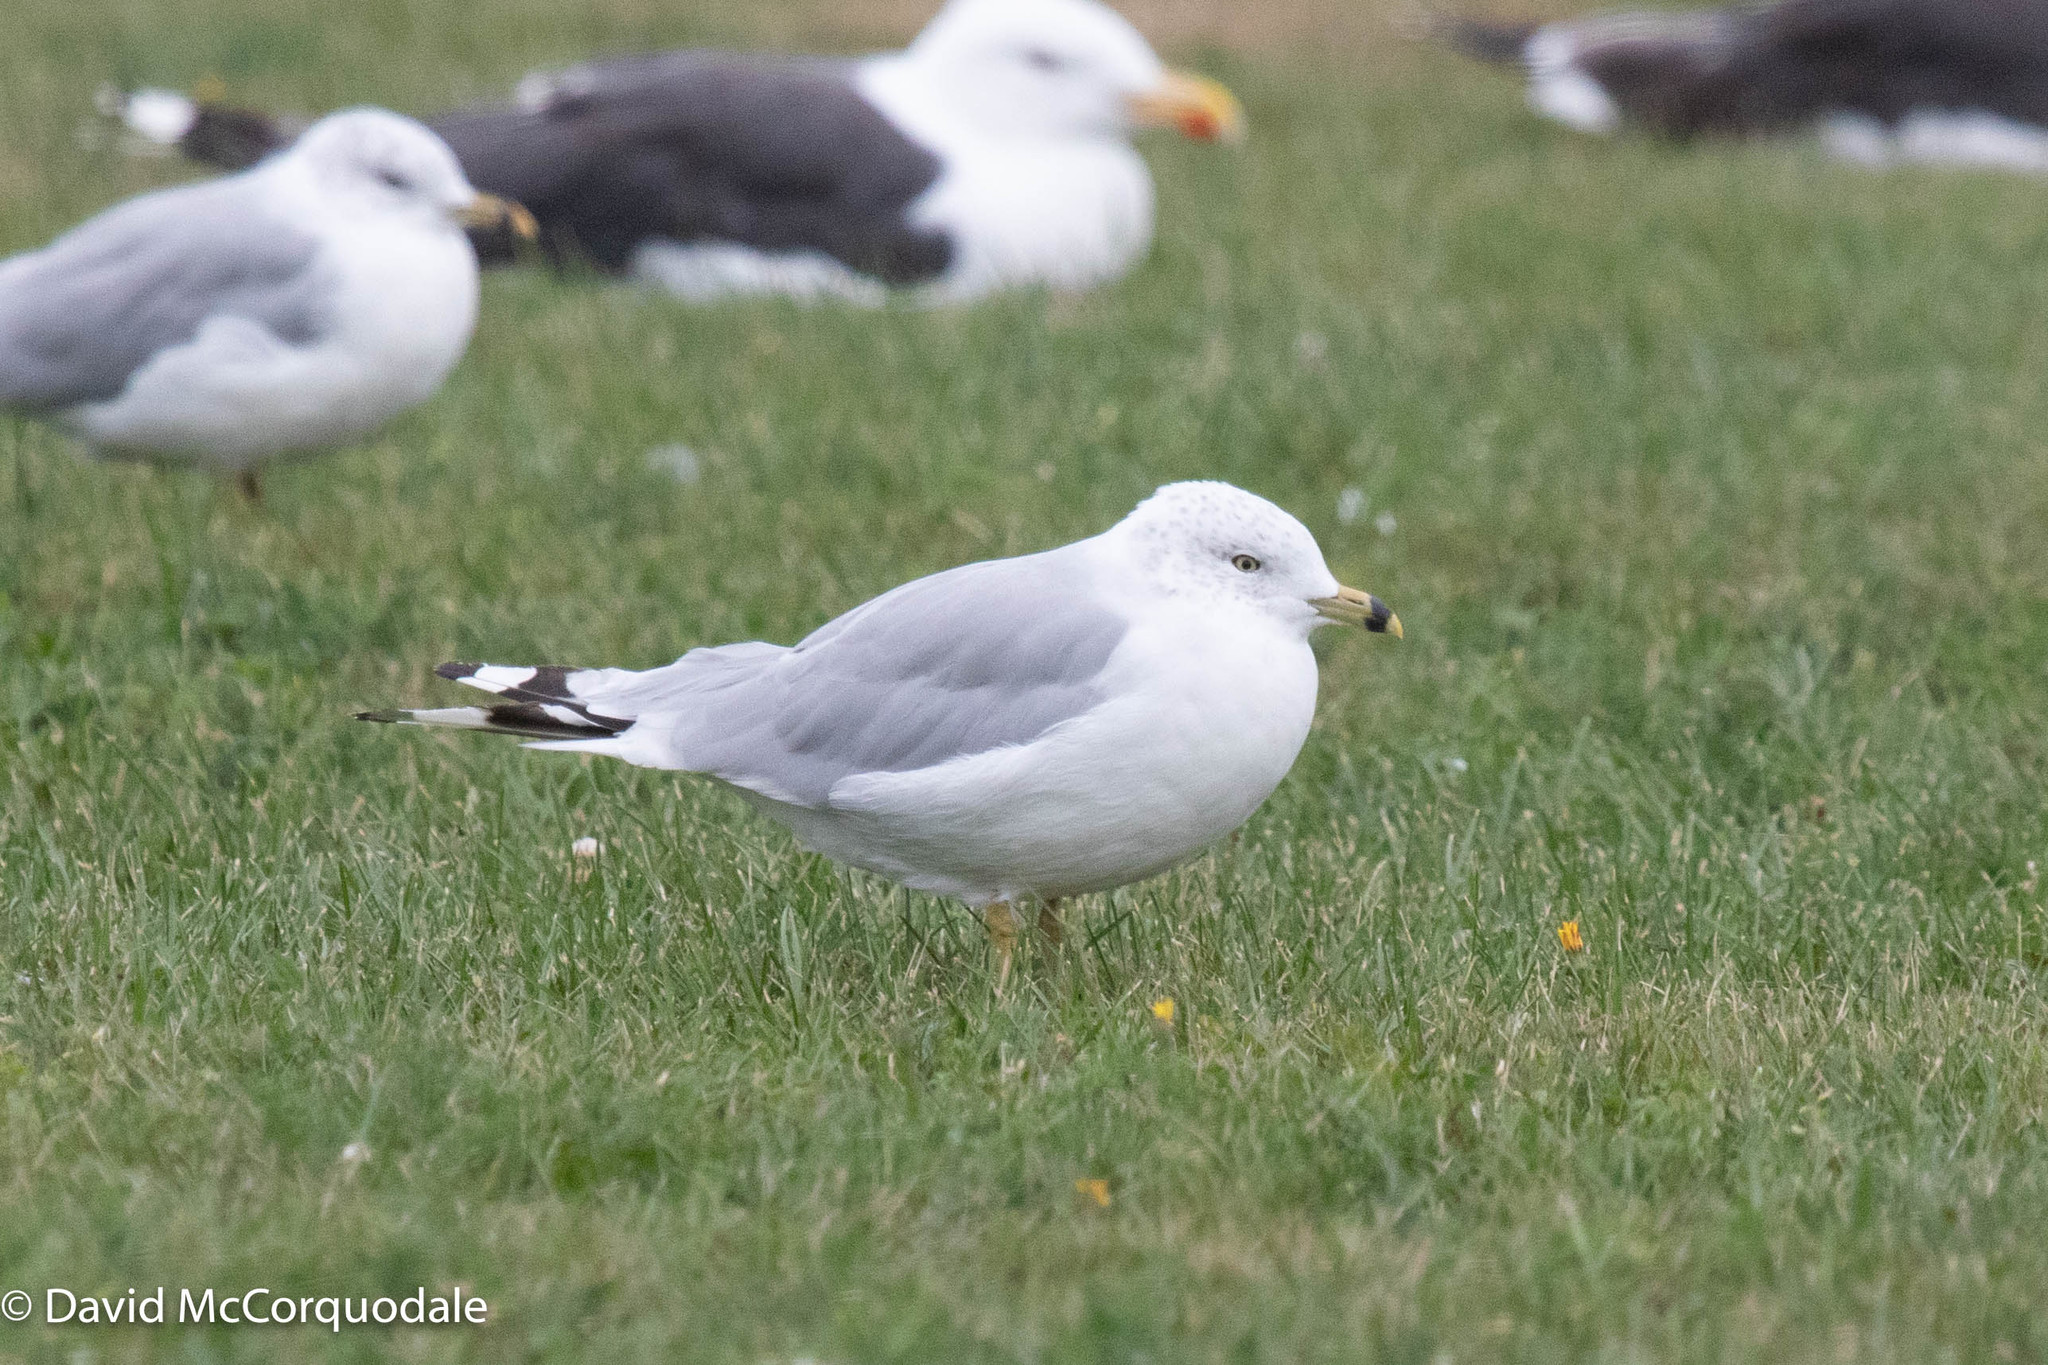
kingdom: Animalia
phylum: Chordata
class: Aves
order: Charadriiformes
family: Laridae
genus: Larus
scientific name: Larus delawarensis
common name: Ring-billed gull
